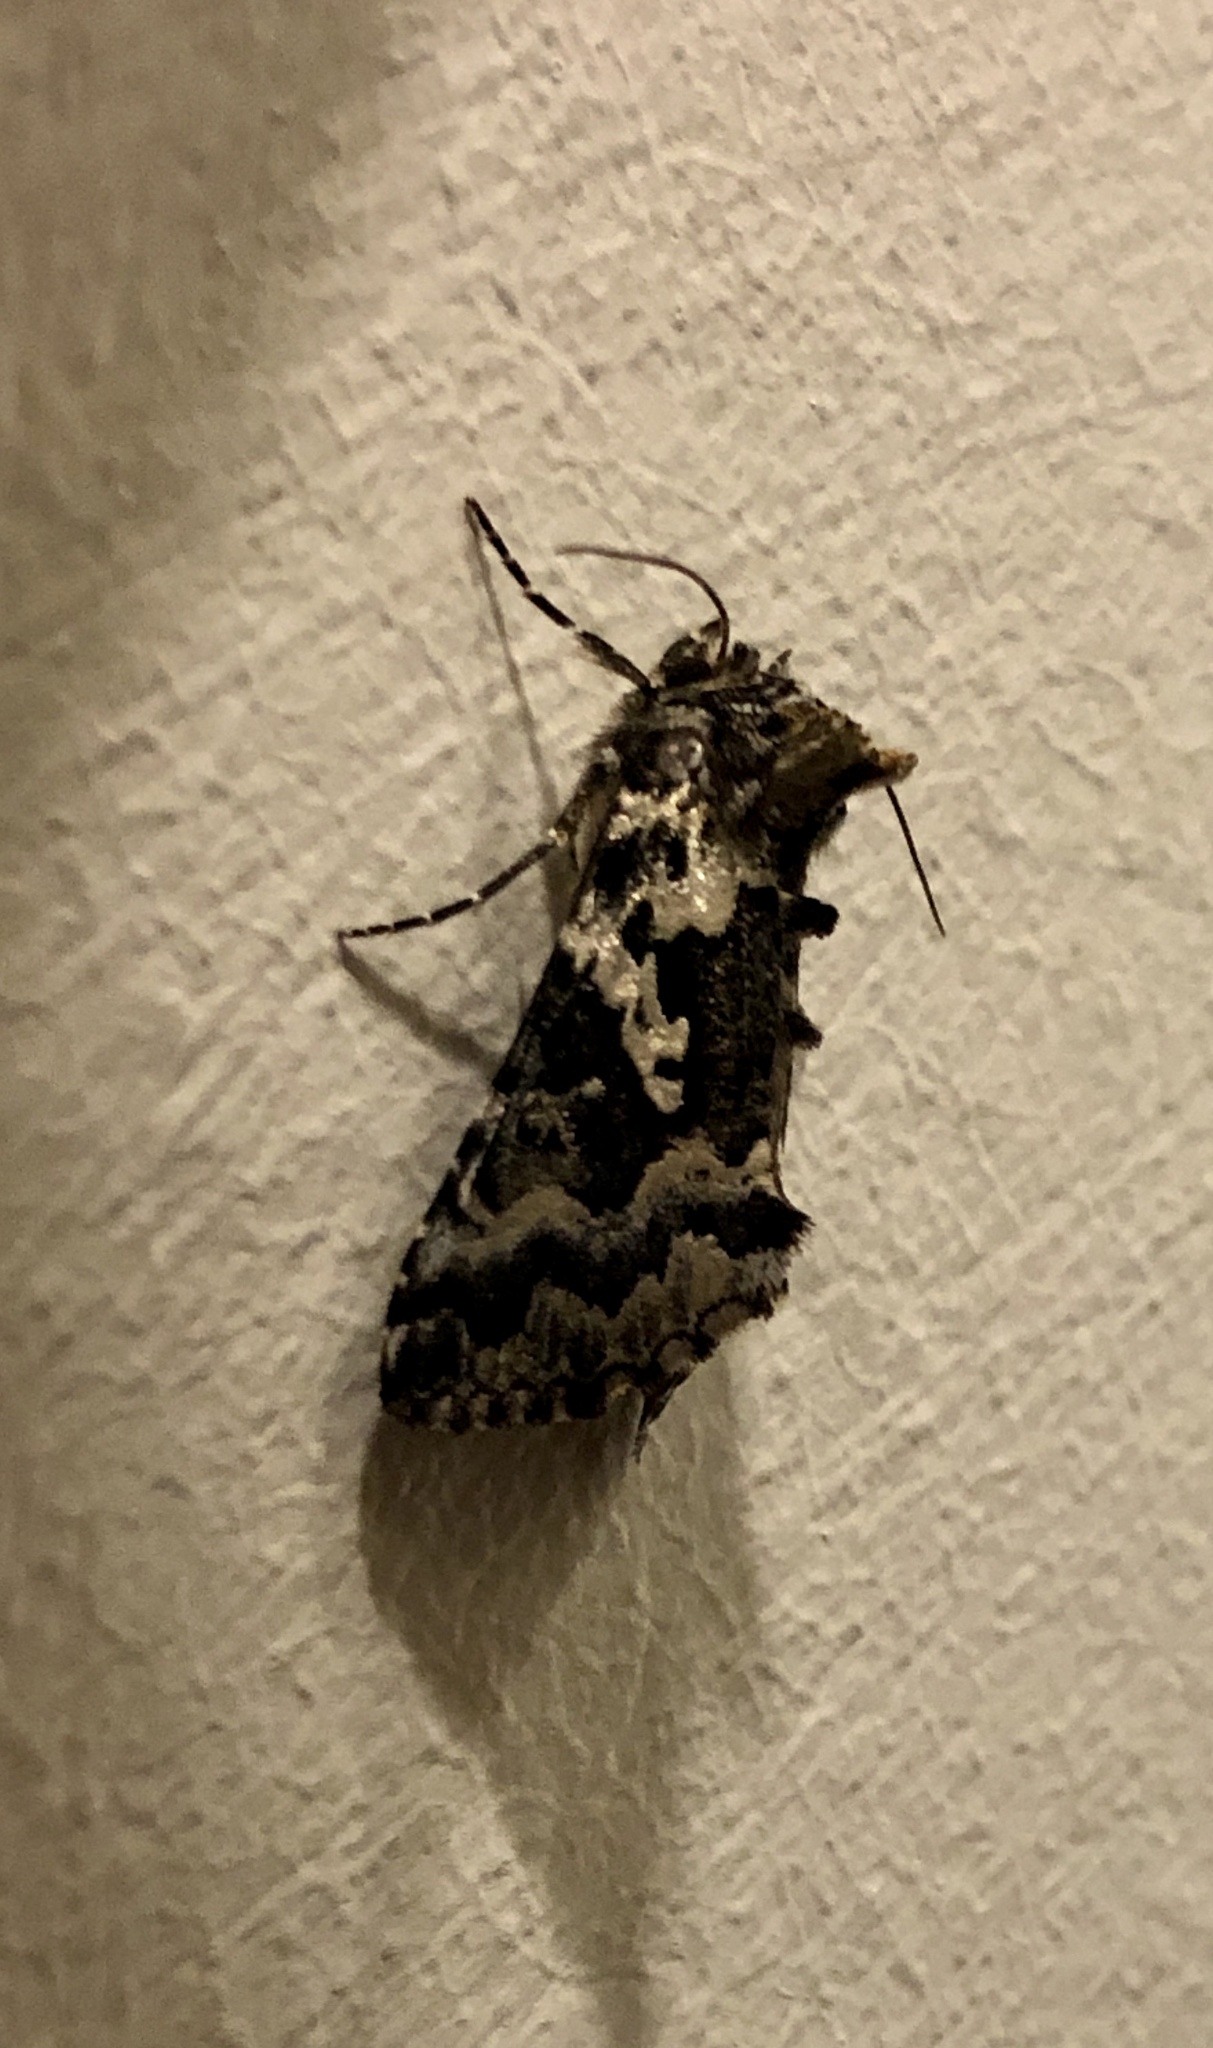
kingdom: Animalia
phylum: Arthropoda
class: Insecta
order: Lepidoptera
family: Noctuidae
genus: Syngrapha
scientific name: Syngrapha rectangula
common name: Angulated cutworm
